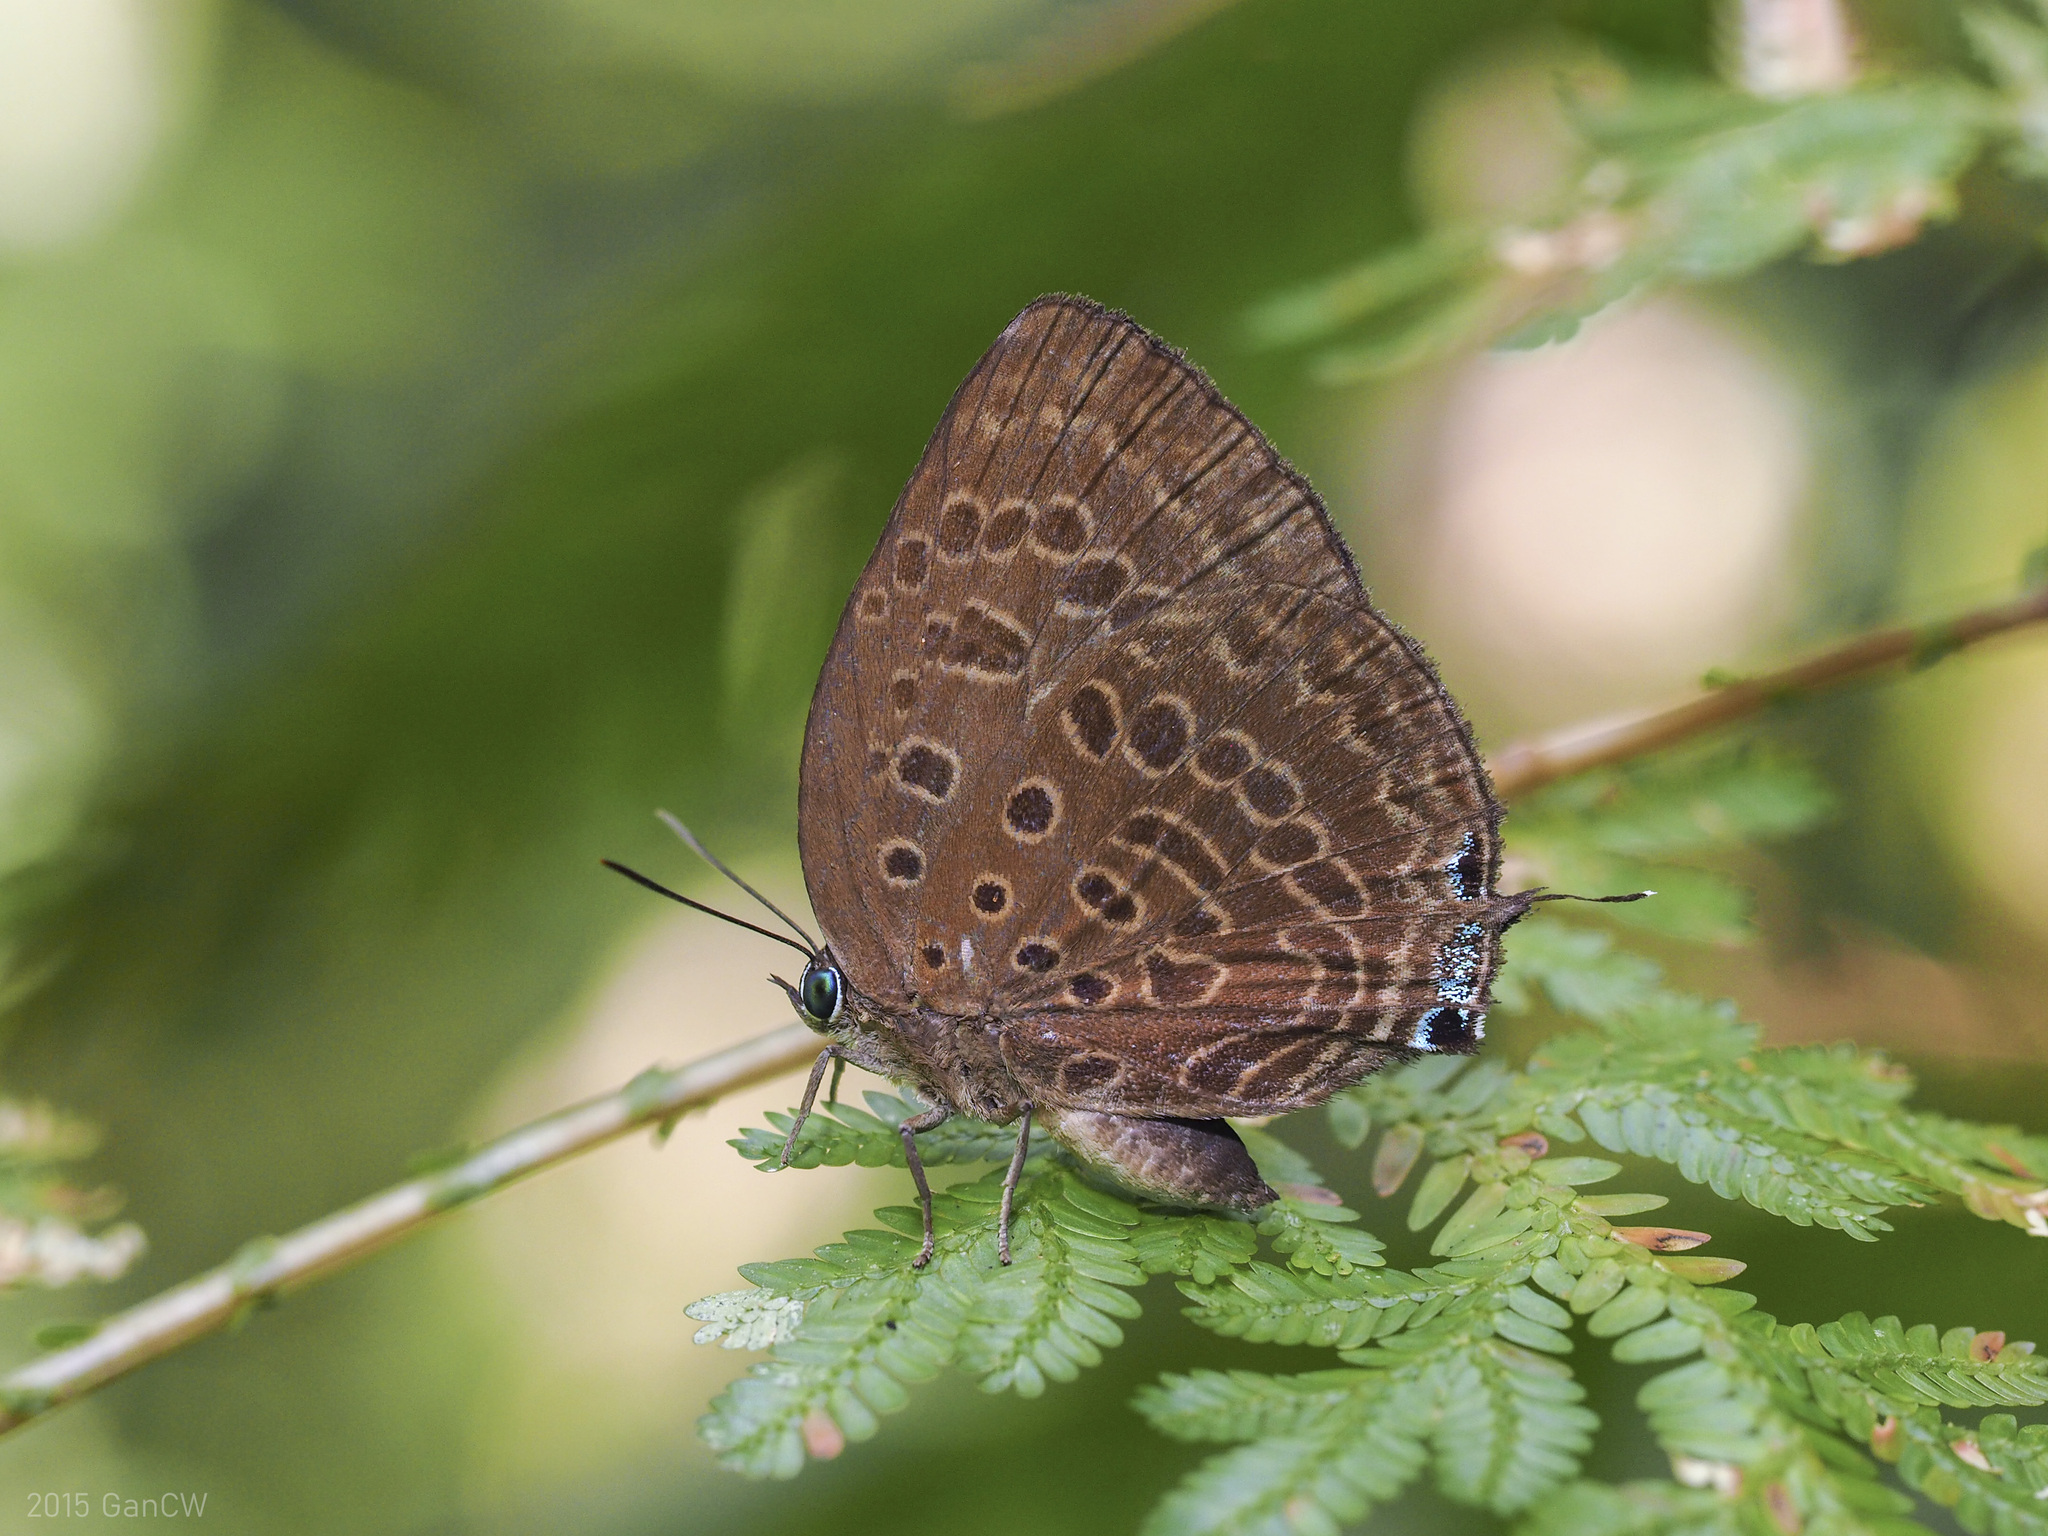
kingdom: Animalia
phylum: Arthropoda
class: Insecta
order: Lepidoptera
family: Lycaenidae
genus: Arhopala
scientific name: Arhopala aedias
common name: Large metallic oakblue
